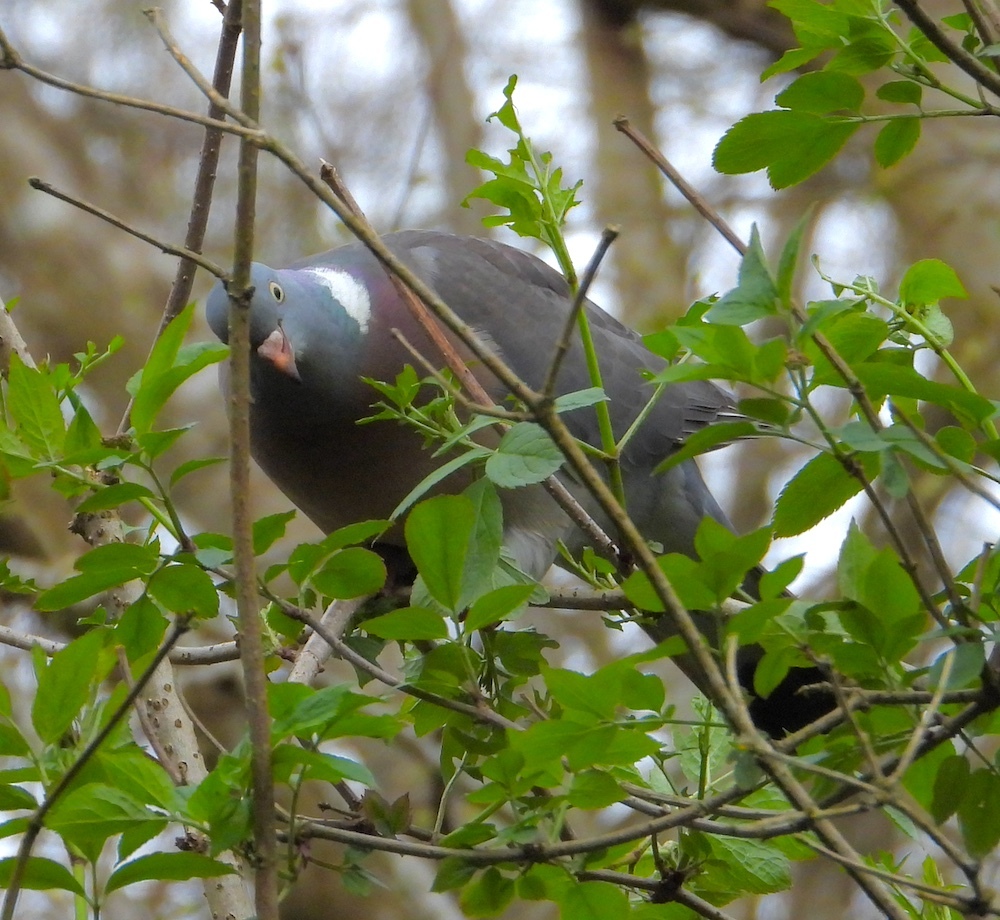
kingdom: Animalia
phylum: Chordata
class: Aves
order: Columbiformes
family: Columbidae
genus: Columba
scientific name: Columba palumbus
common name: Common wood pigeon
